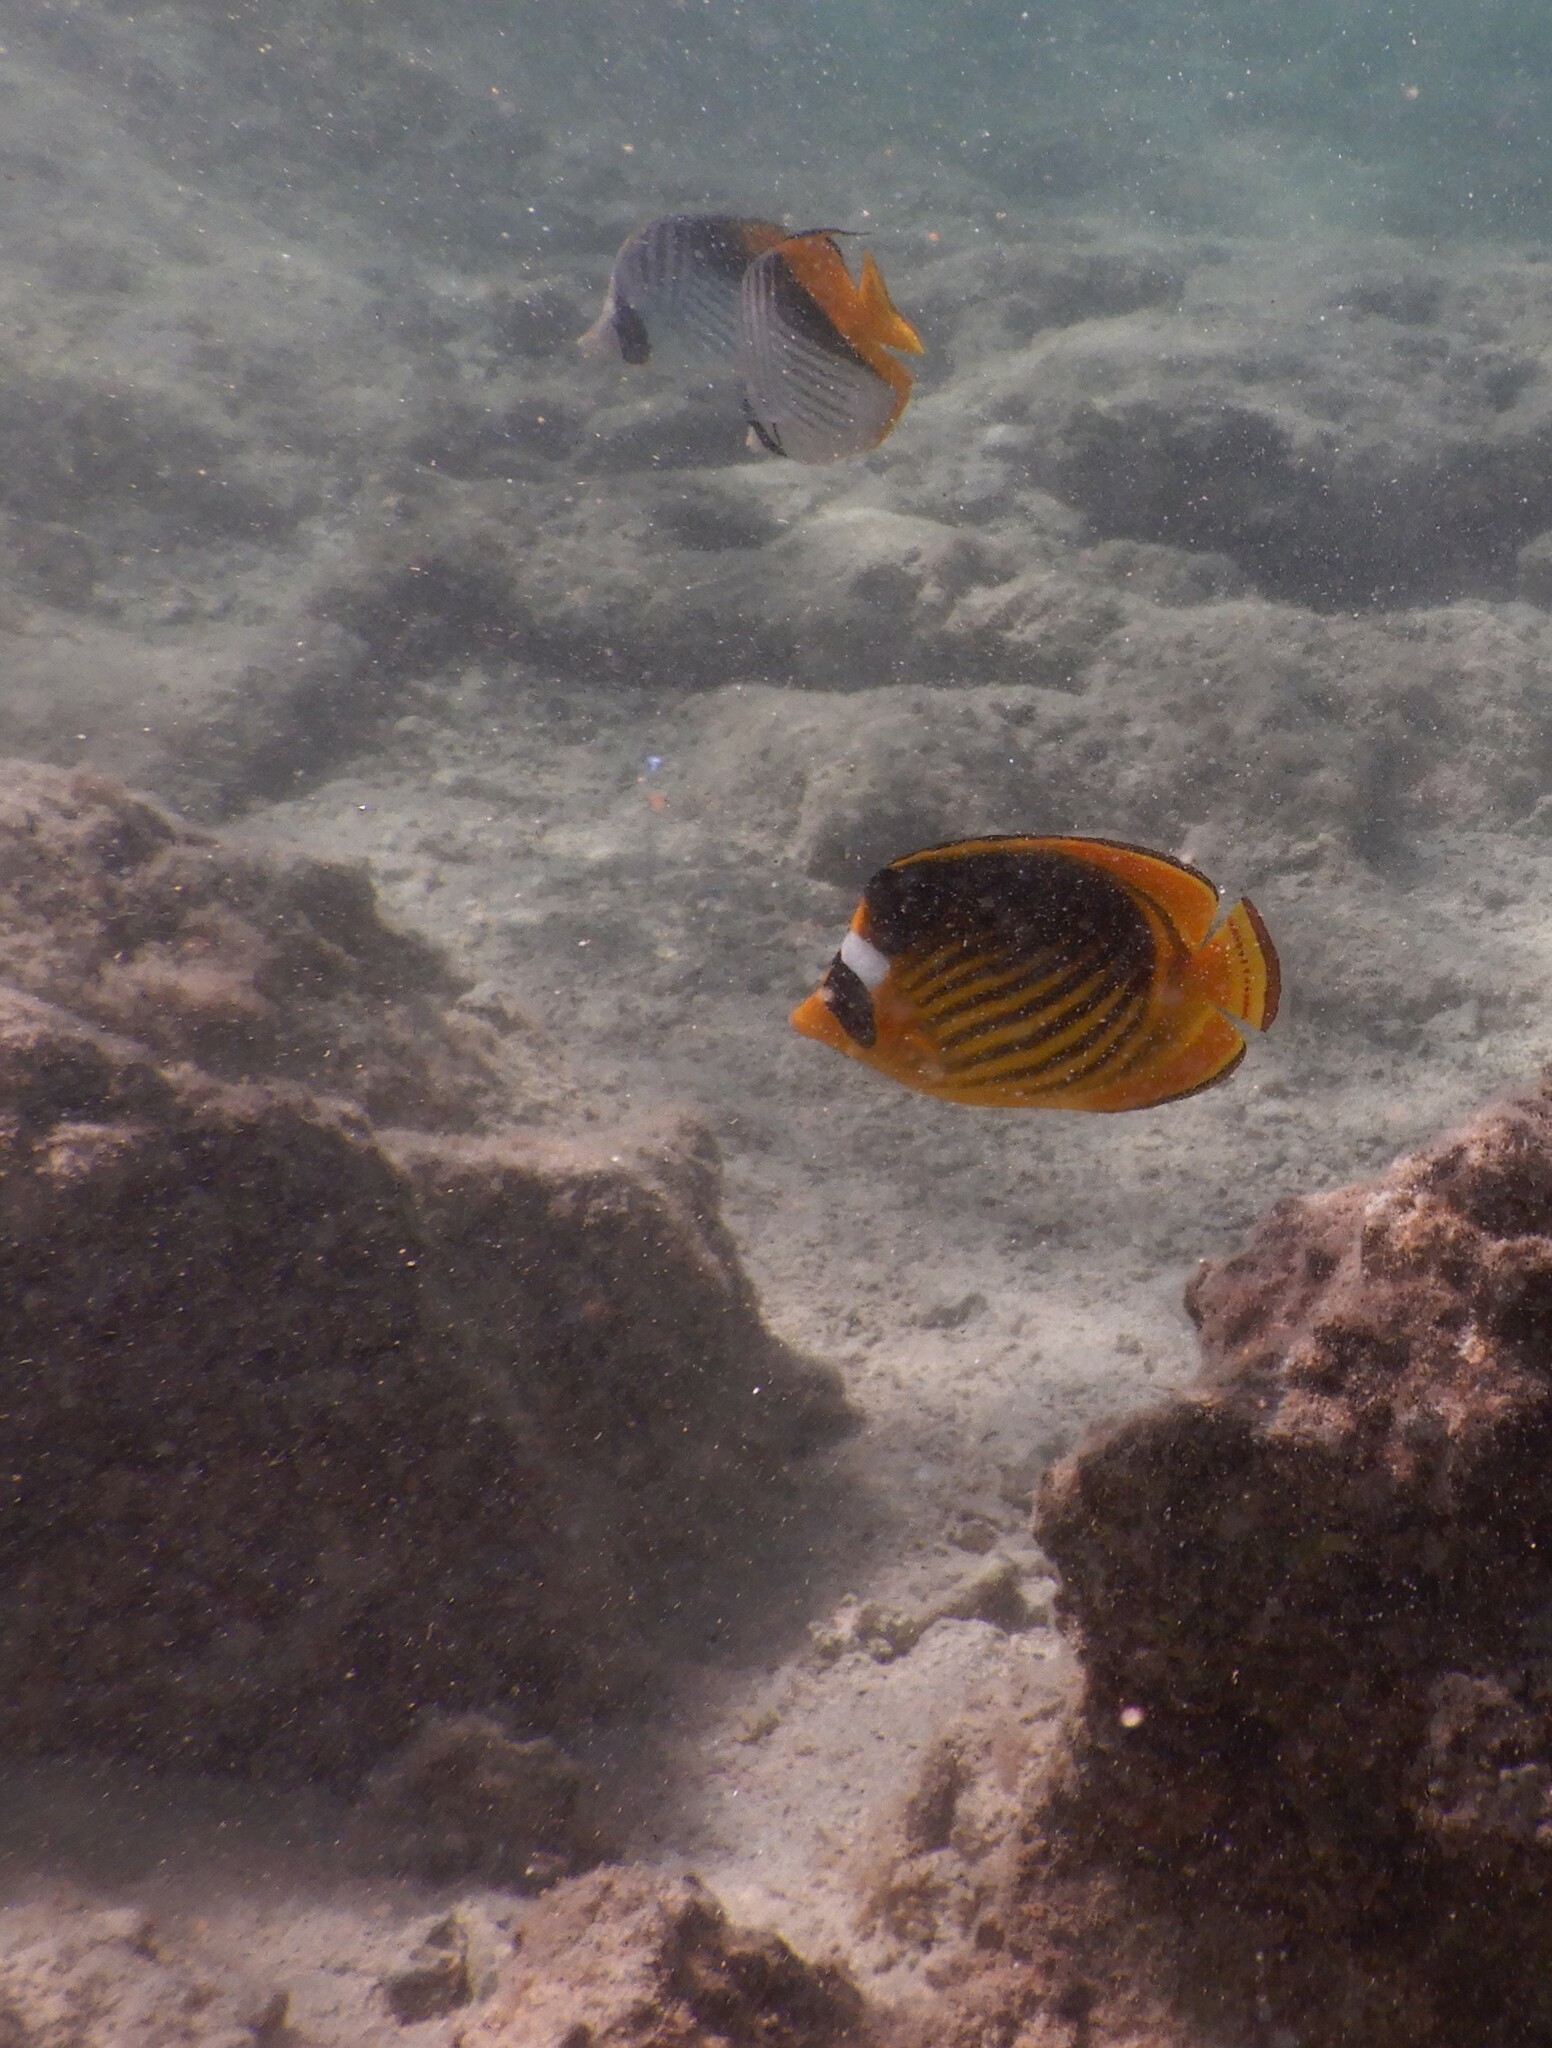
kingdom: Animalia
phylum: Chordata
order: Perciformes
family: Chaetodontidae
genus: Chaetodon
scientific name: Chaetodon fasciatus
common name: Diagonal butterflyfish
